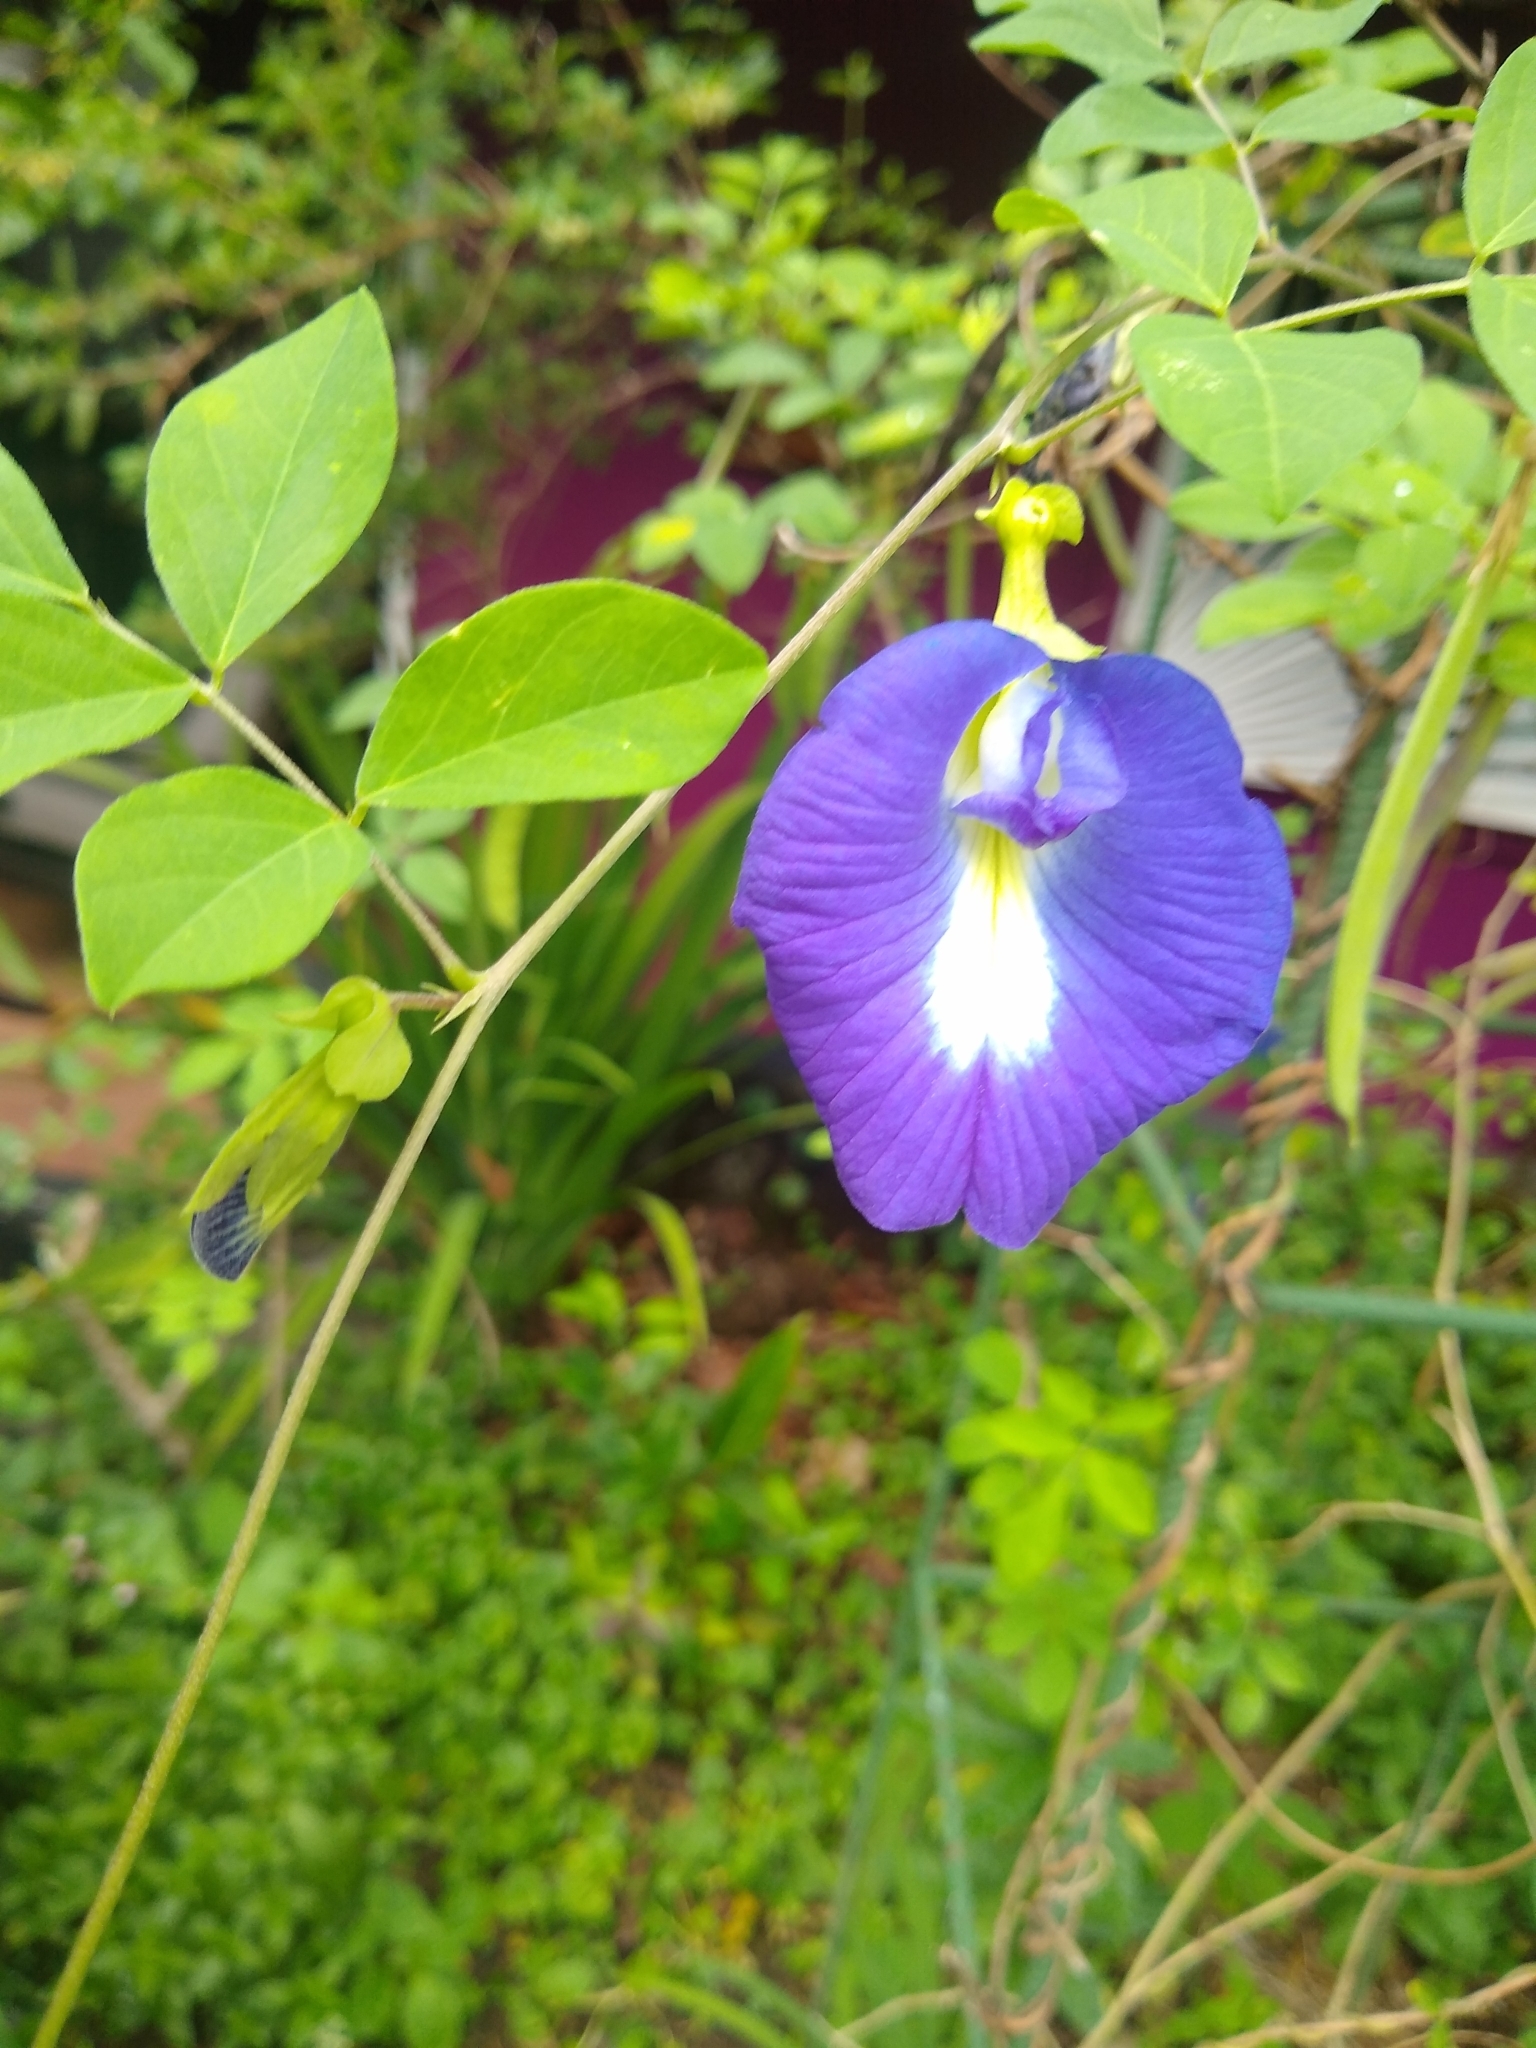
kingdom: Plantae
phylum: Tracheophyta
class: Magnoliopsida
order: Fabales
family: Fabaceae
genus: Clitoria
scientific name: Clitoria ternatea
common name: Asian pigeonwings
